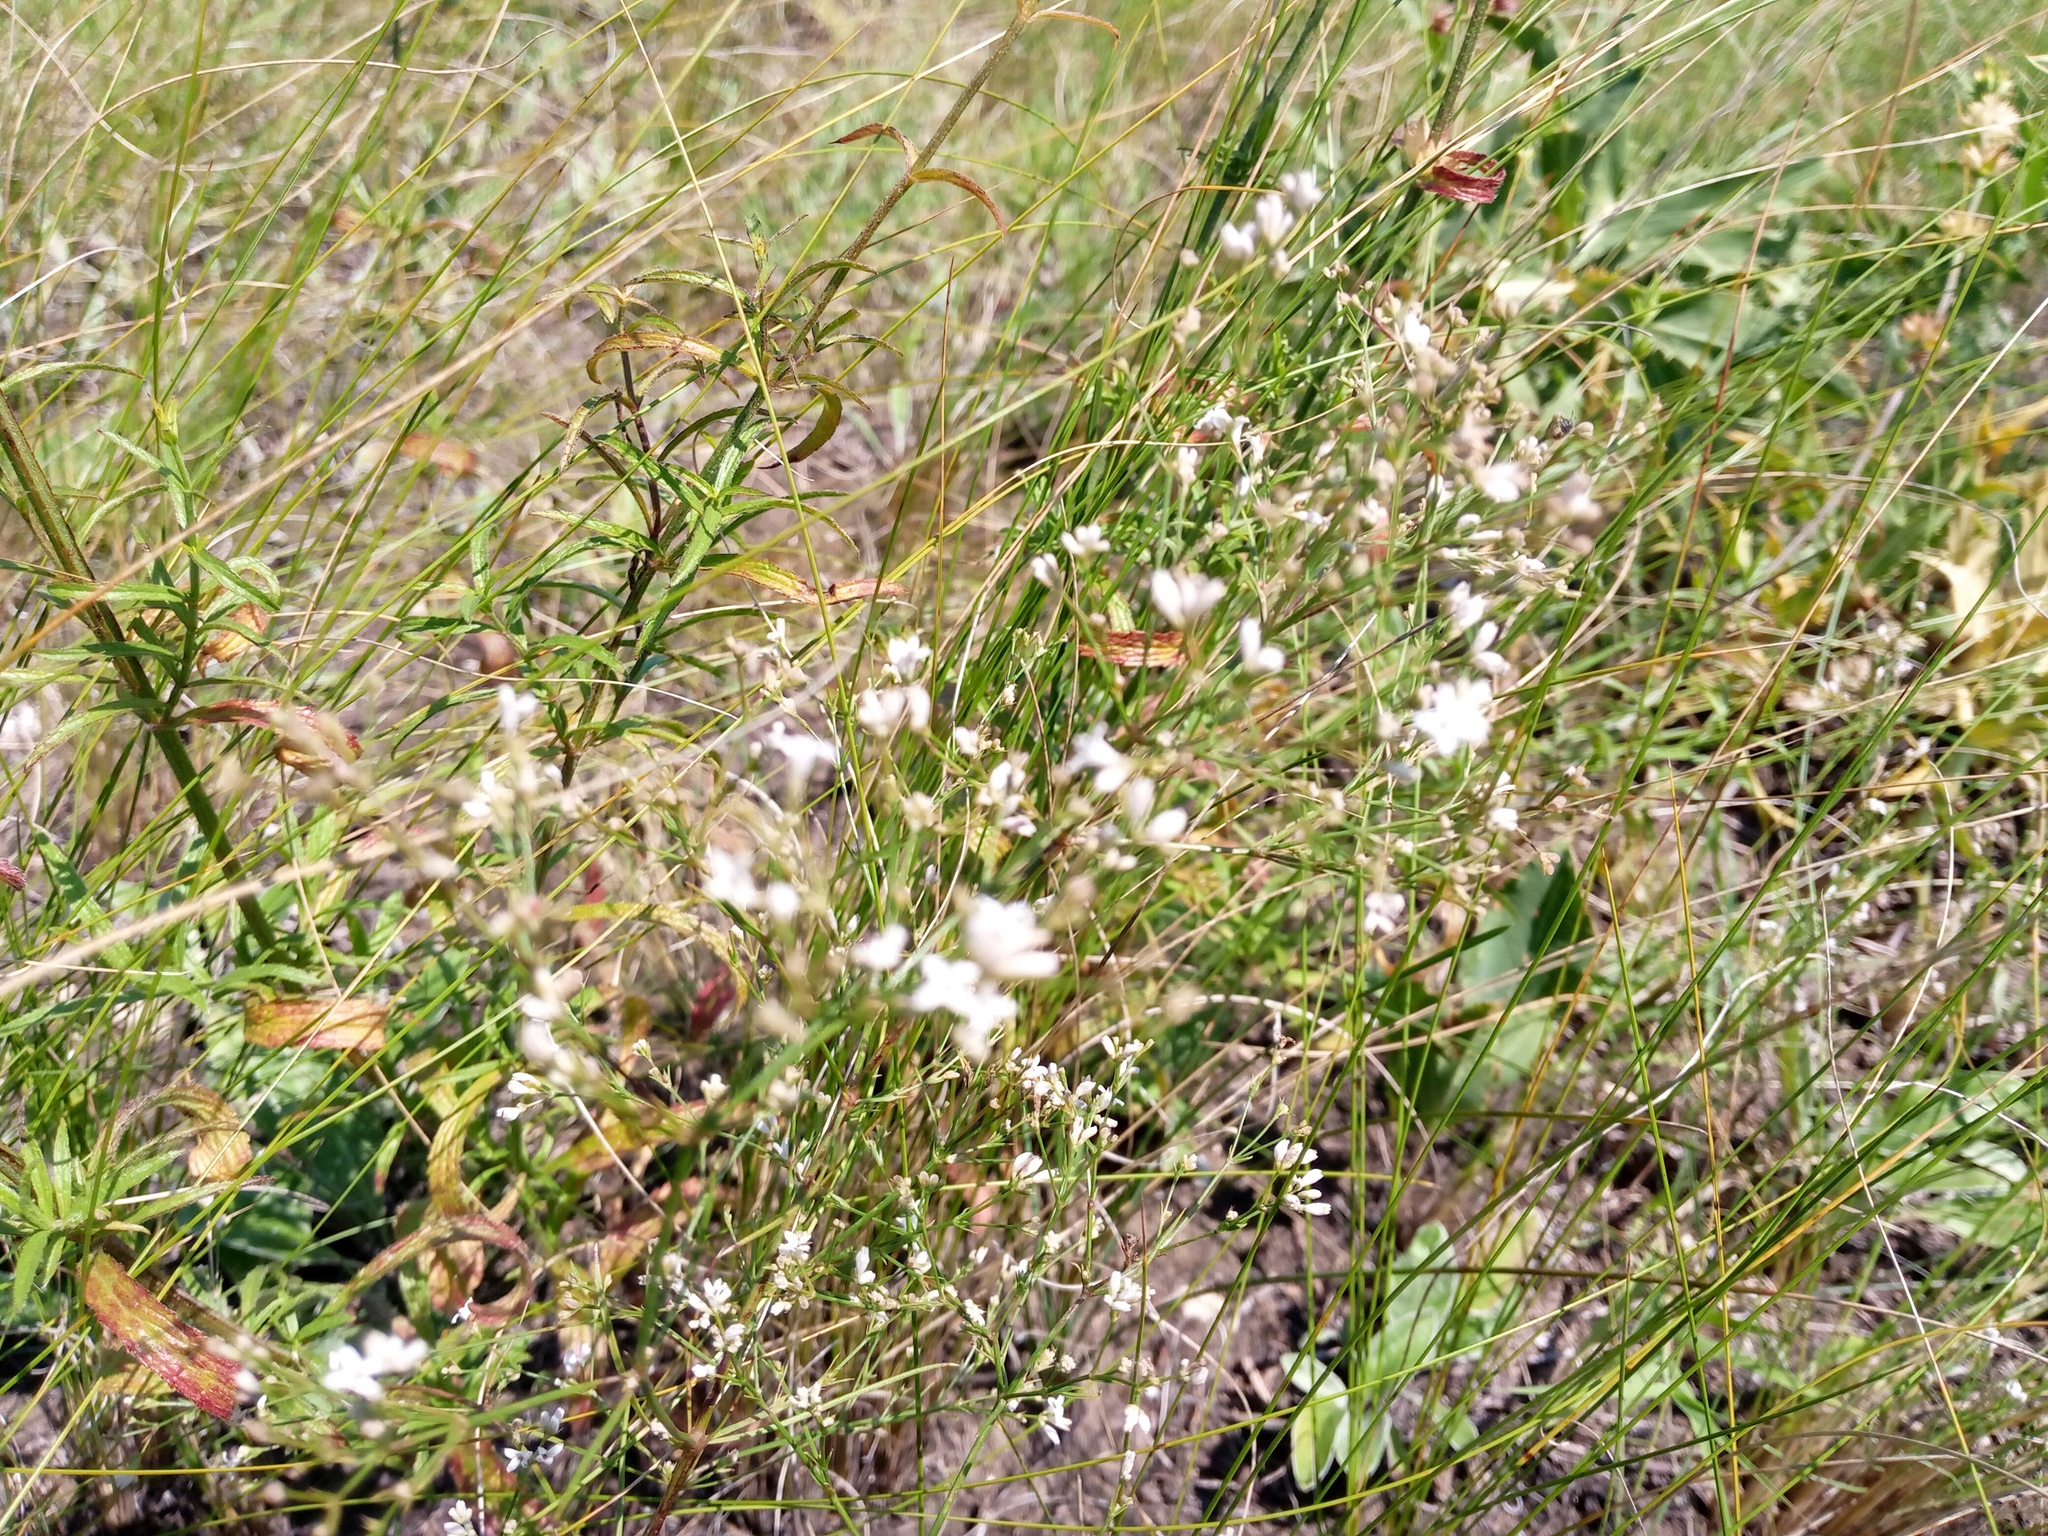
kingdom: Plantae
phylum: Tracheophyta
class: Magnoliopsida
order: Gentianales
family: Rubiaceae
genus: Cynanchica
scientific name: Cynanchica pyrenaica
